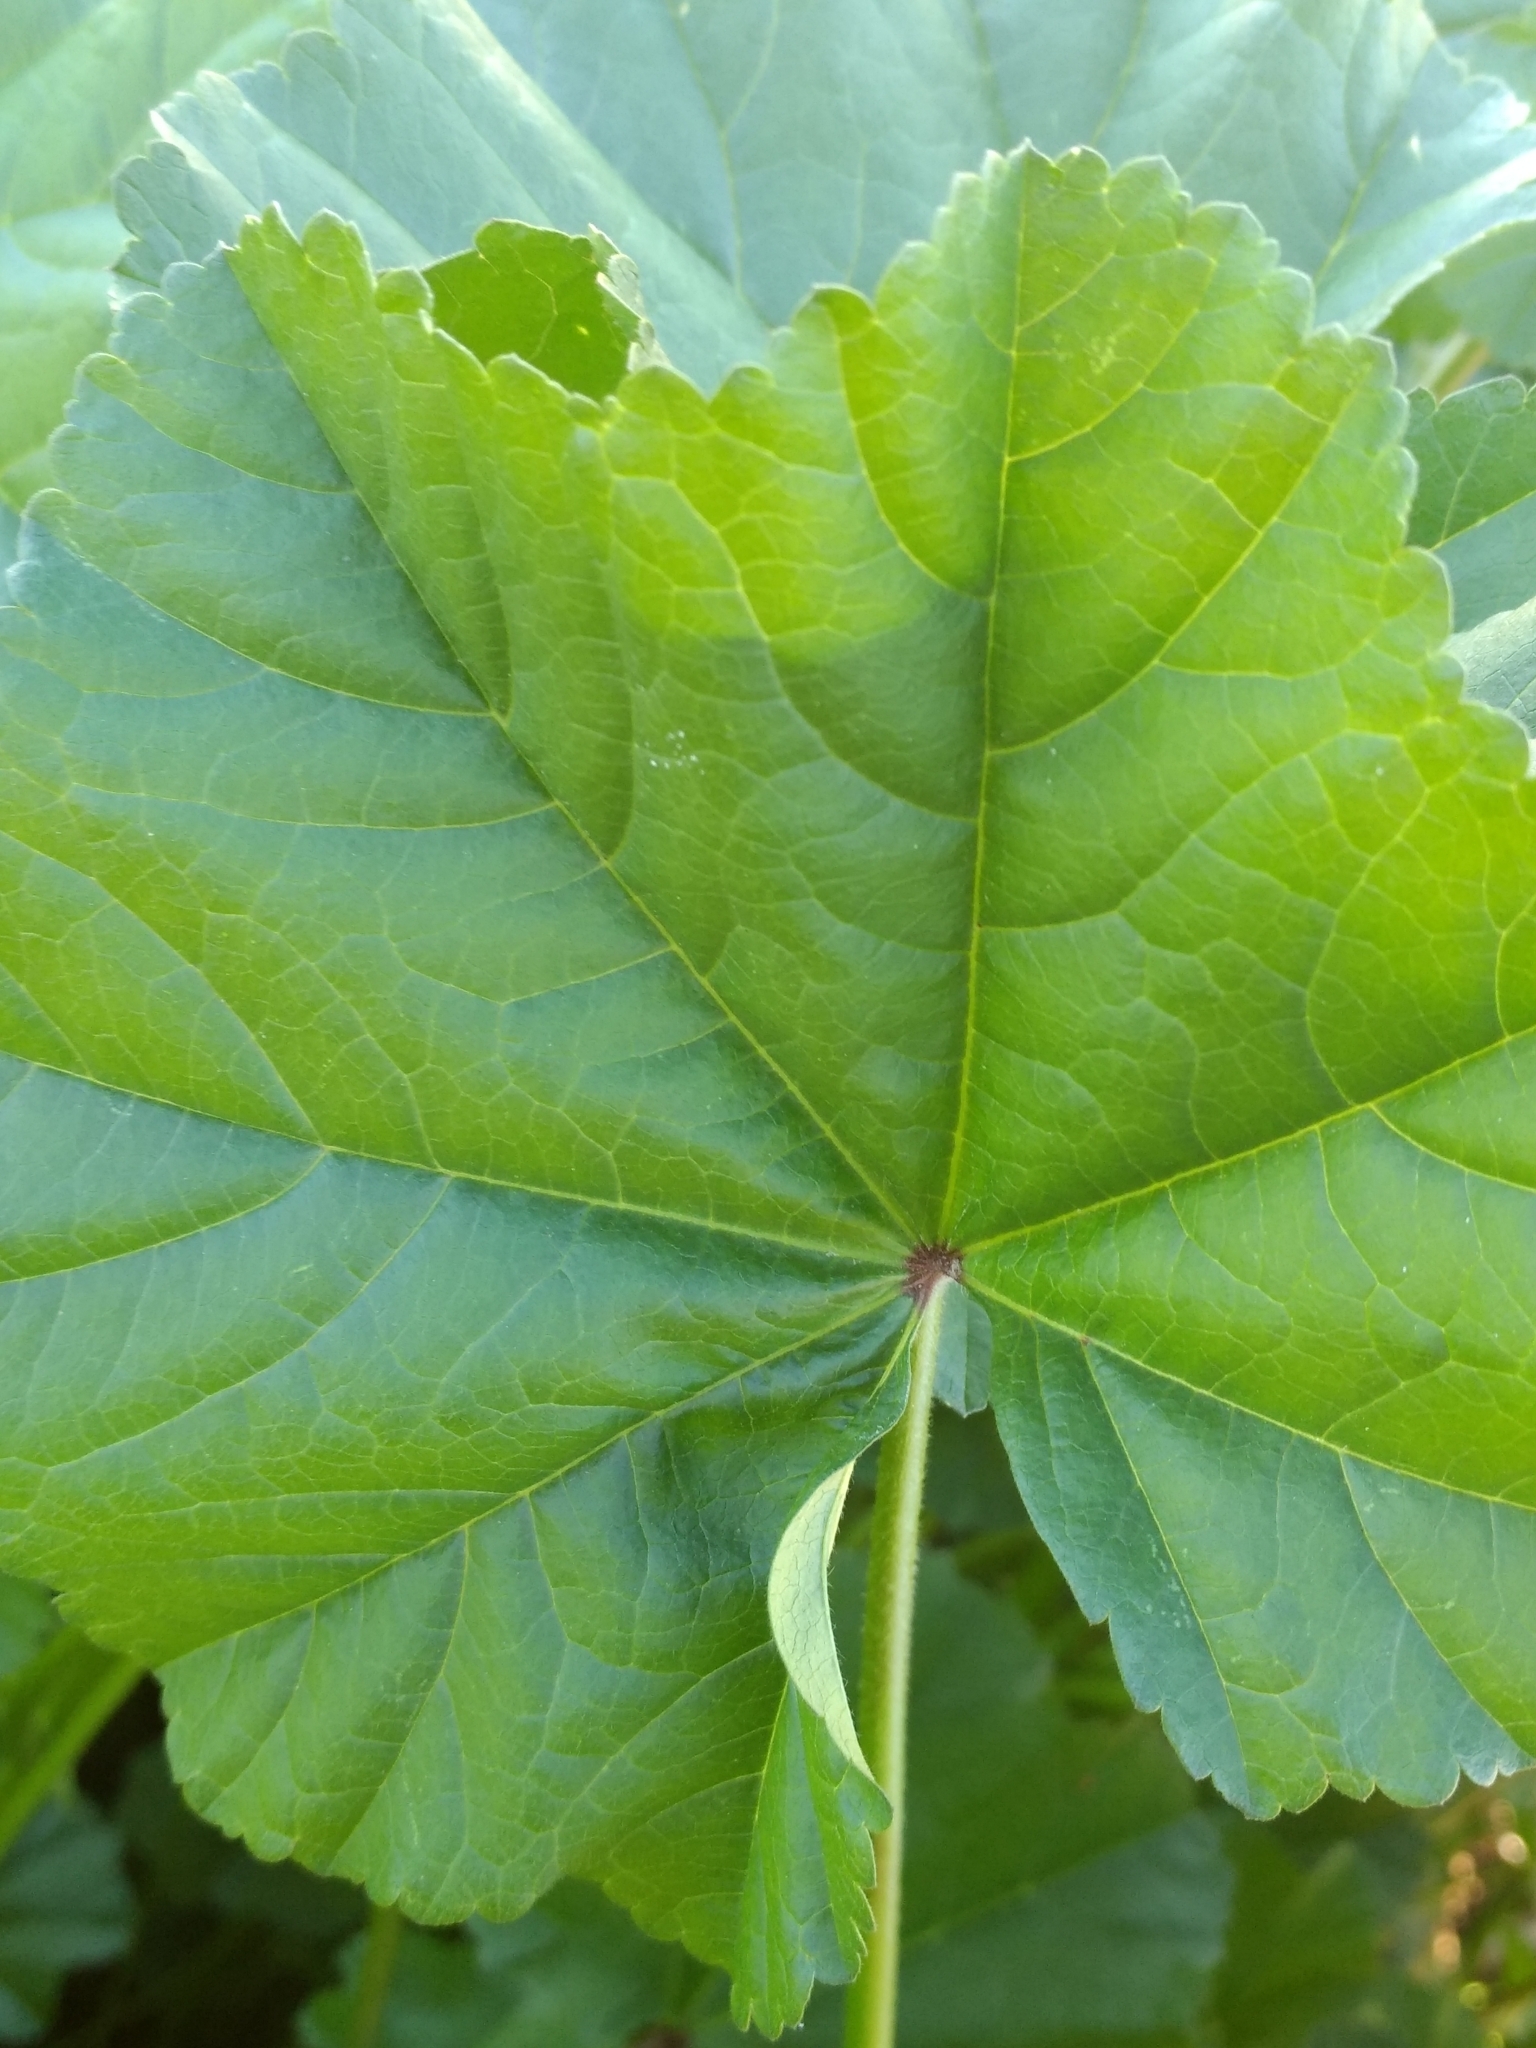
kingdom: Plantae
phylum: Tracheophyta
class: Magnoliopsida
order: Malvales
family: Malvaceae
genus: Malva
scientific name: Malva parviflora
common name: Least mallow
